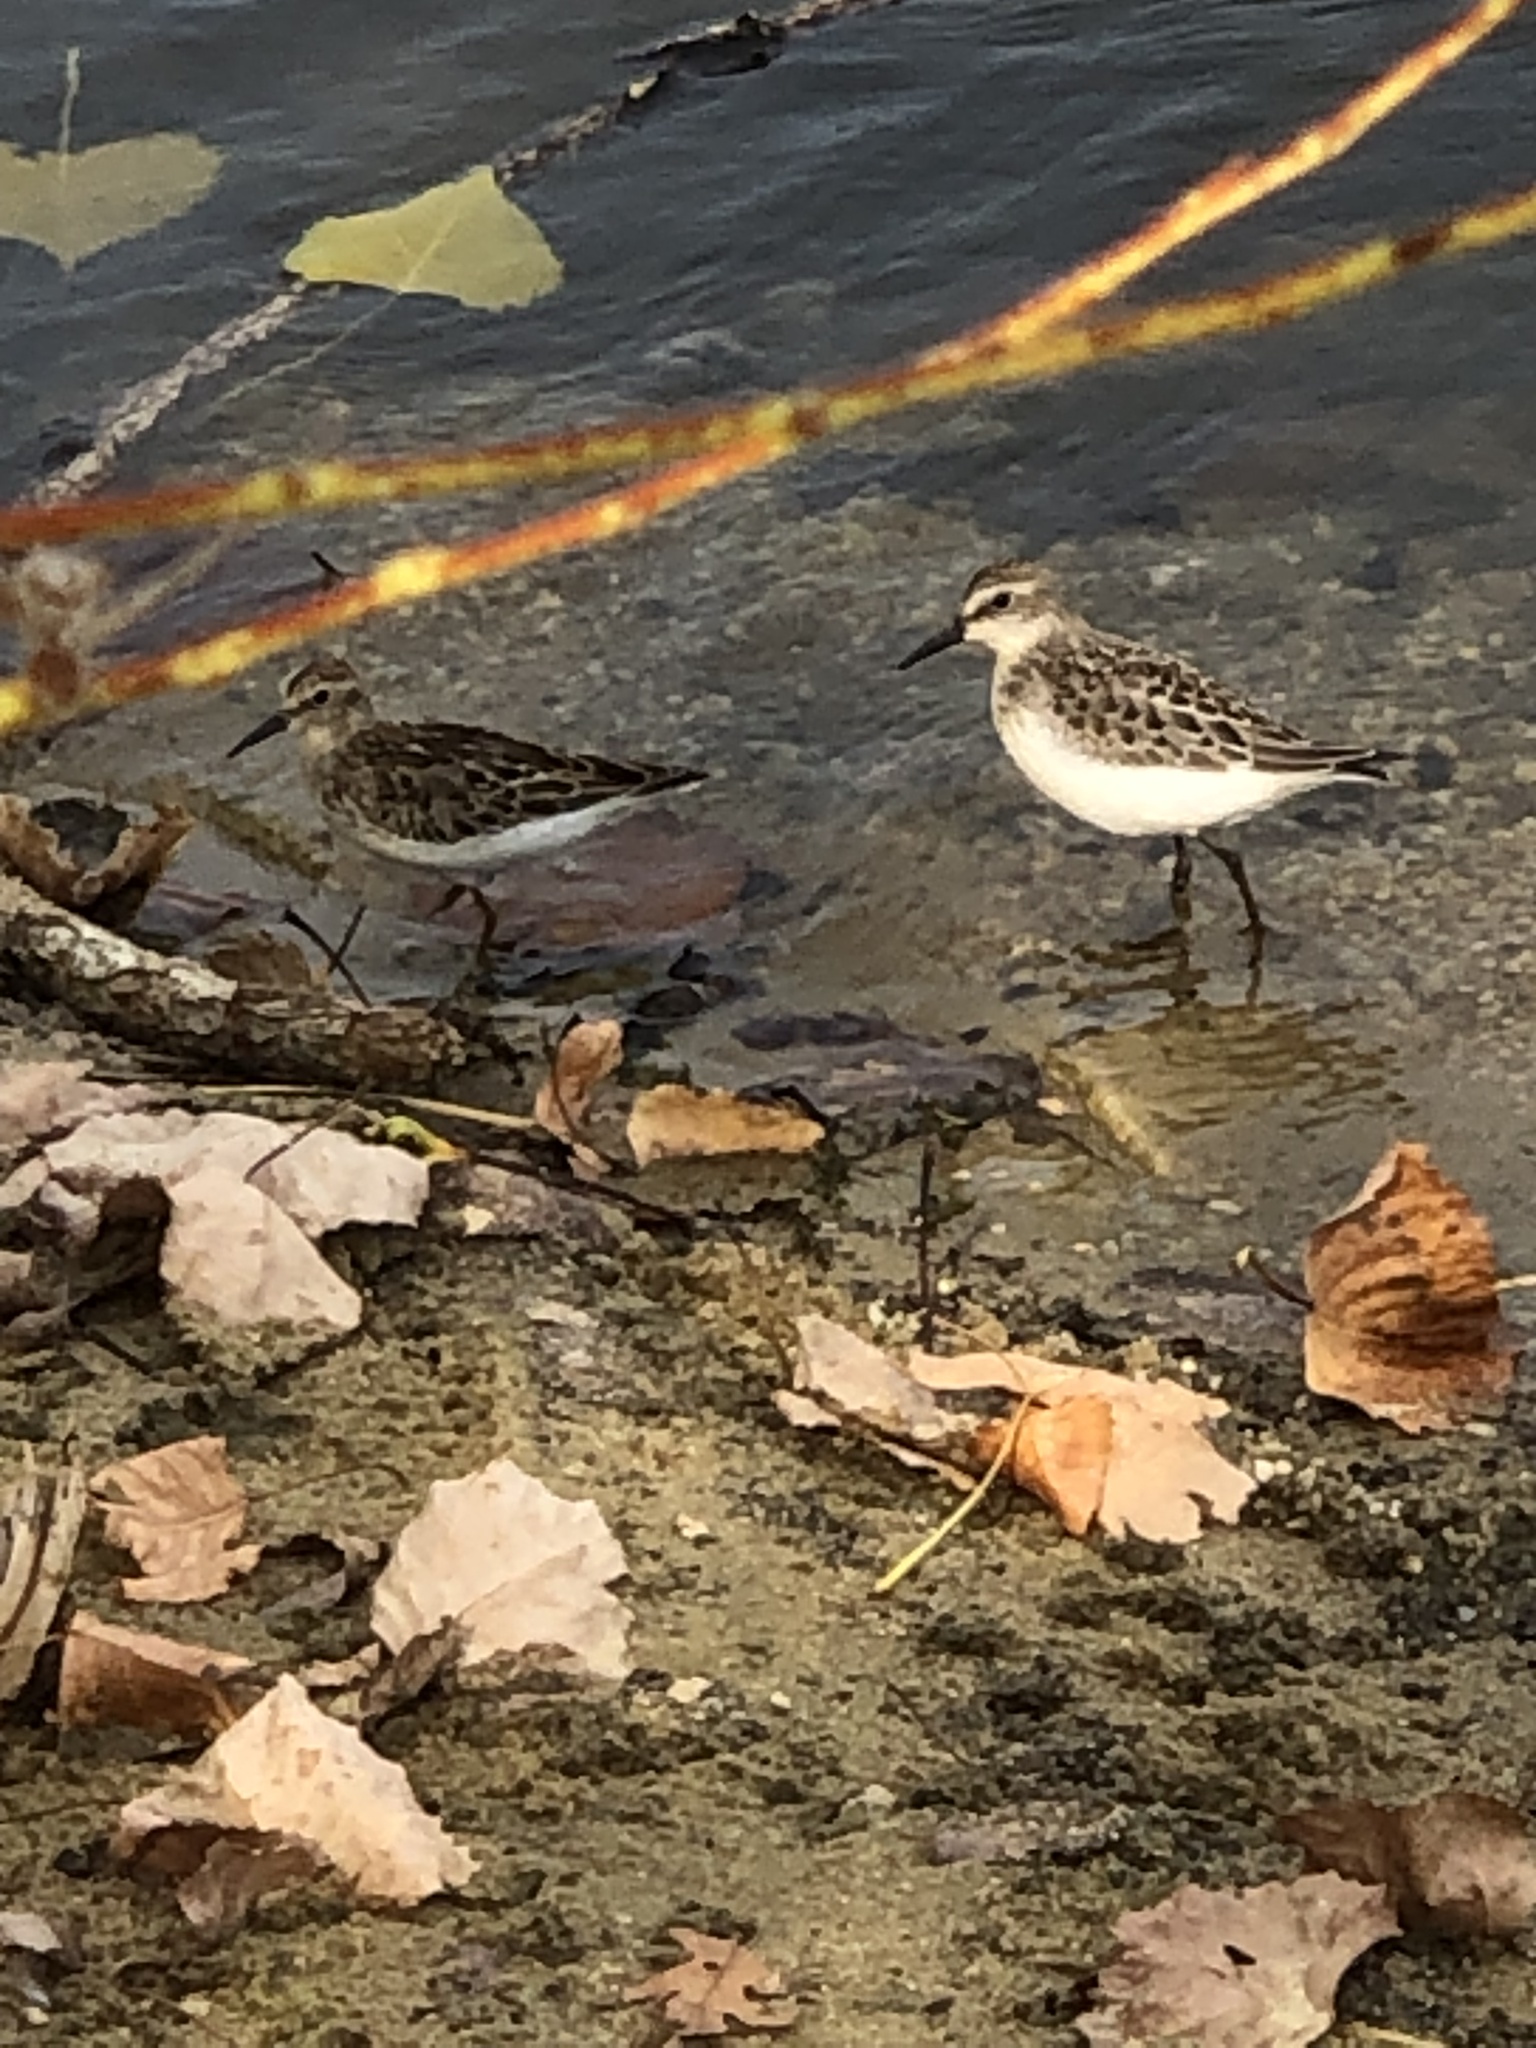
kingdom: Animalia
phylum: Chordata
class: Aves
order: Charadriiformes
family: Scolopacidae
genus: Calidris
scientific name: Calidris minutilla
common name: Least sandpiper
